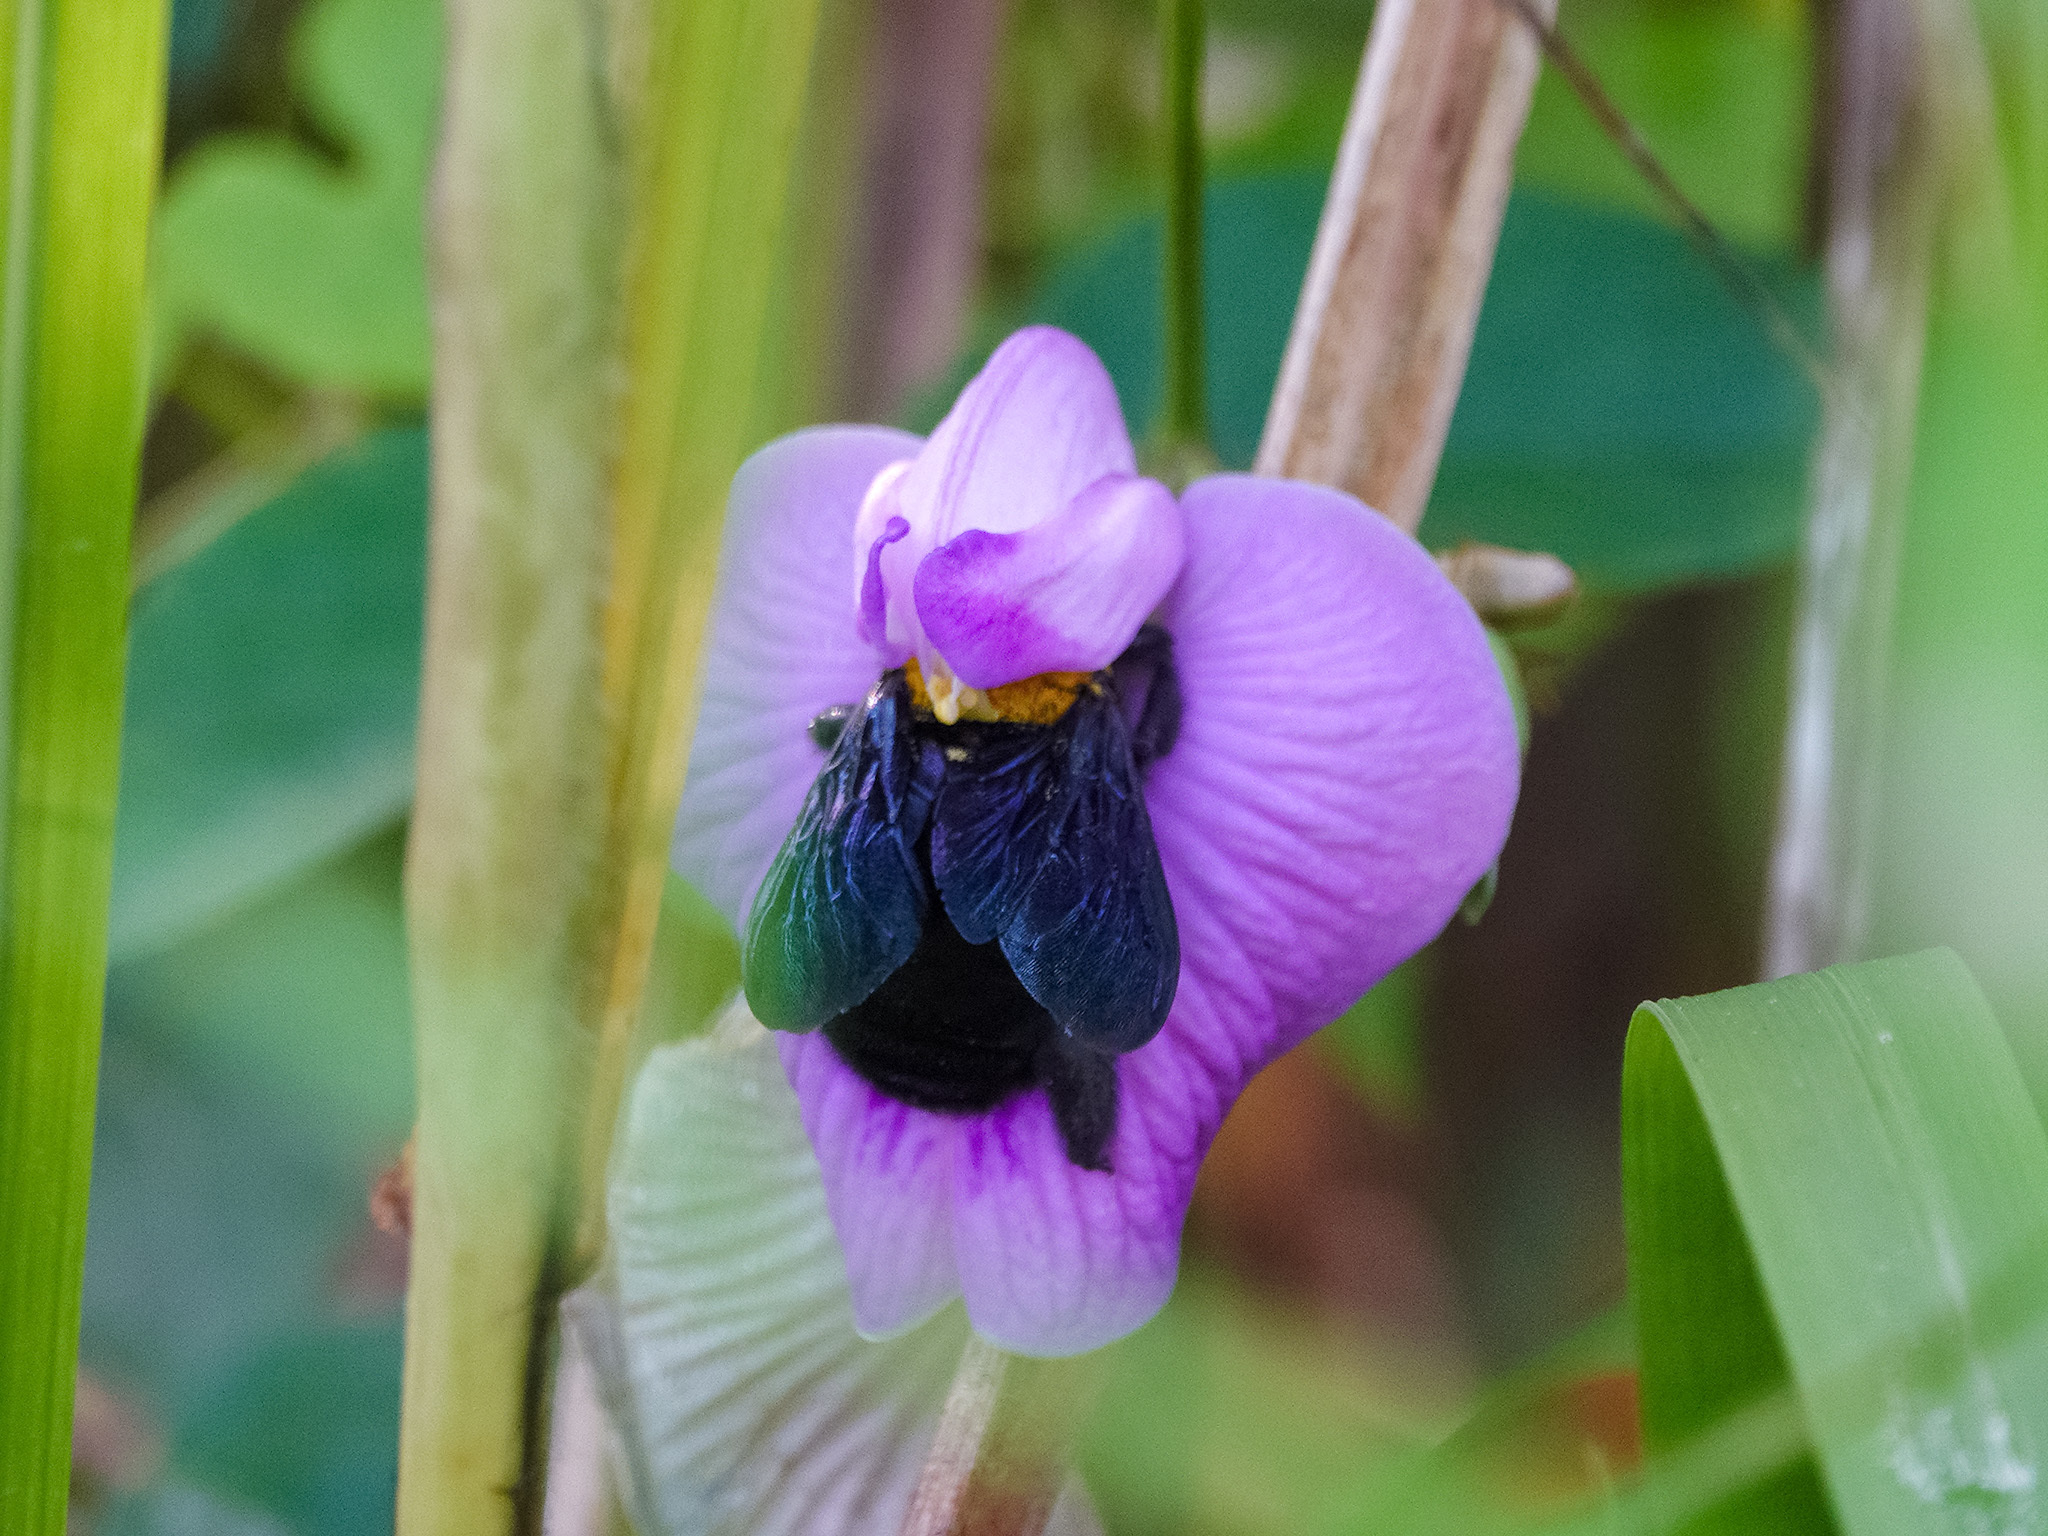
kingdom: Animalia
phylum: Arthropoda
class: Insecta
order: Hymenoptera
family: Apidae
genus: Xylocopa
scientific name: Xylocopa aestuans
